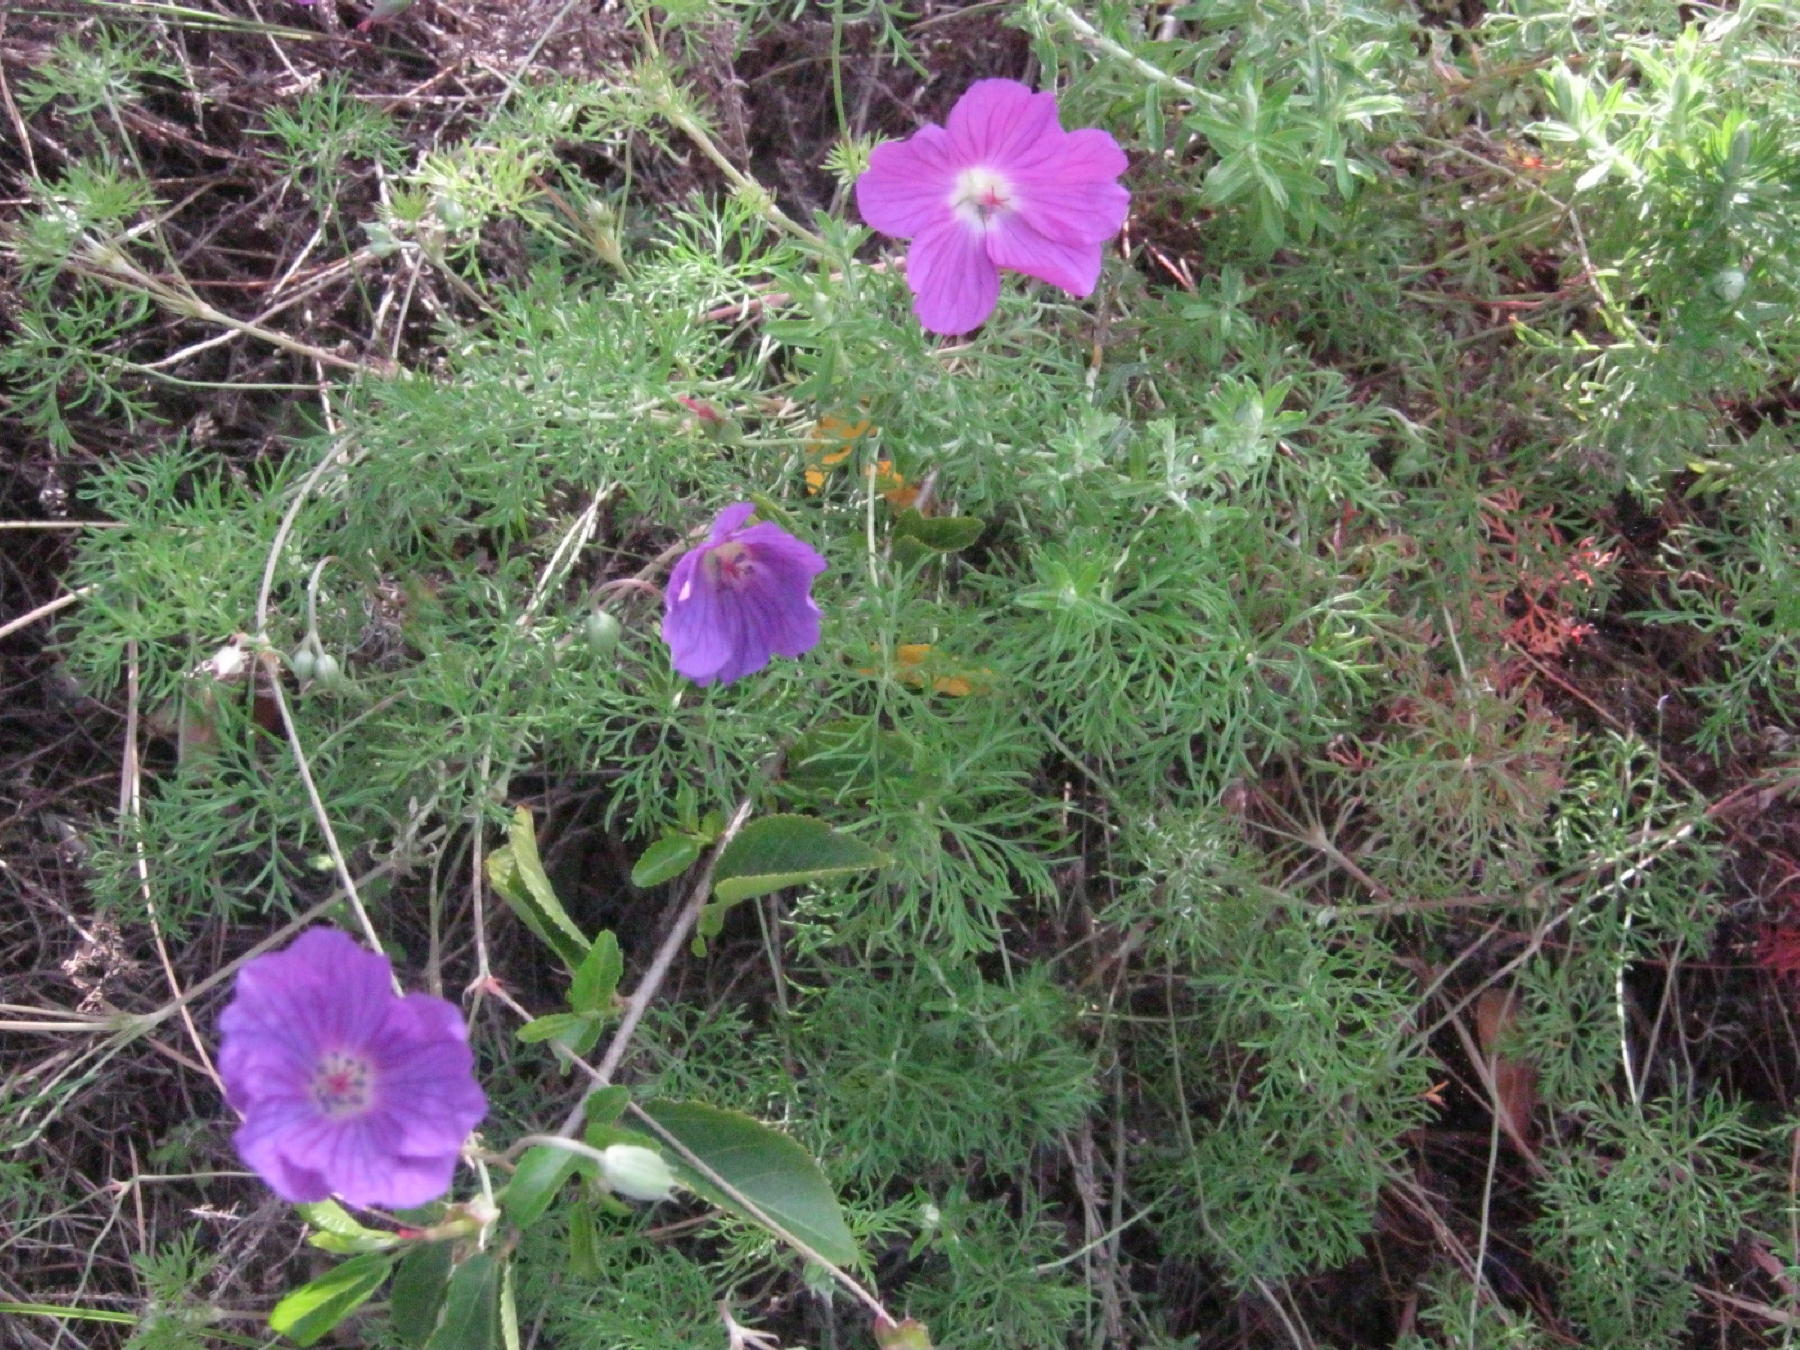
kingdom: Plantae
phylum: Tracheophyta
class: Magnoliopsida
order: Geraniales
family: Geraniaceae
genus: Geranium
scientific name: Geranium incanum
